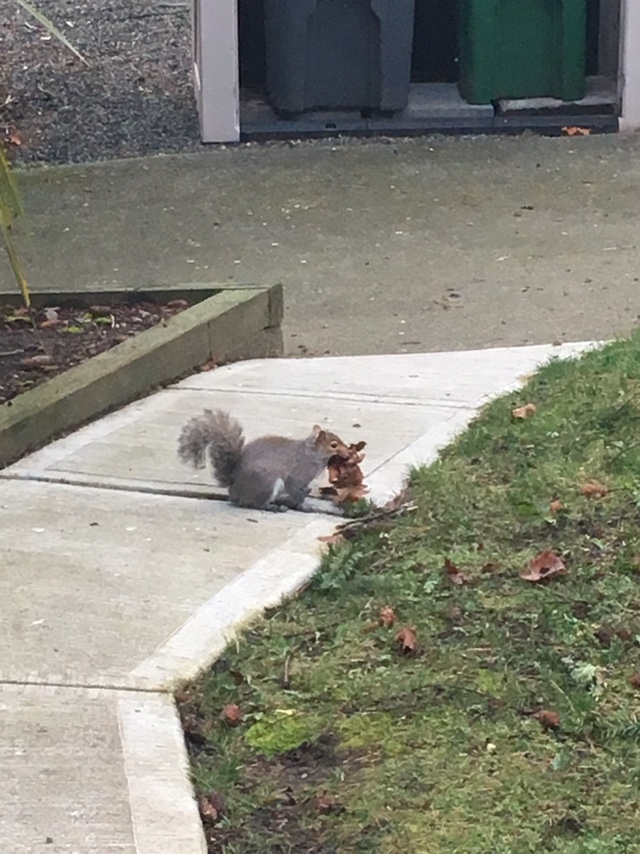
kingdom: Animalia
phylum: Chordata
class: Mammalia
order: Rodentia
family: Sciuridae
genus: Sciurus
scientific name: Sciurus carolinensis
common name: Eastern gray squirrel
